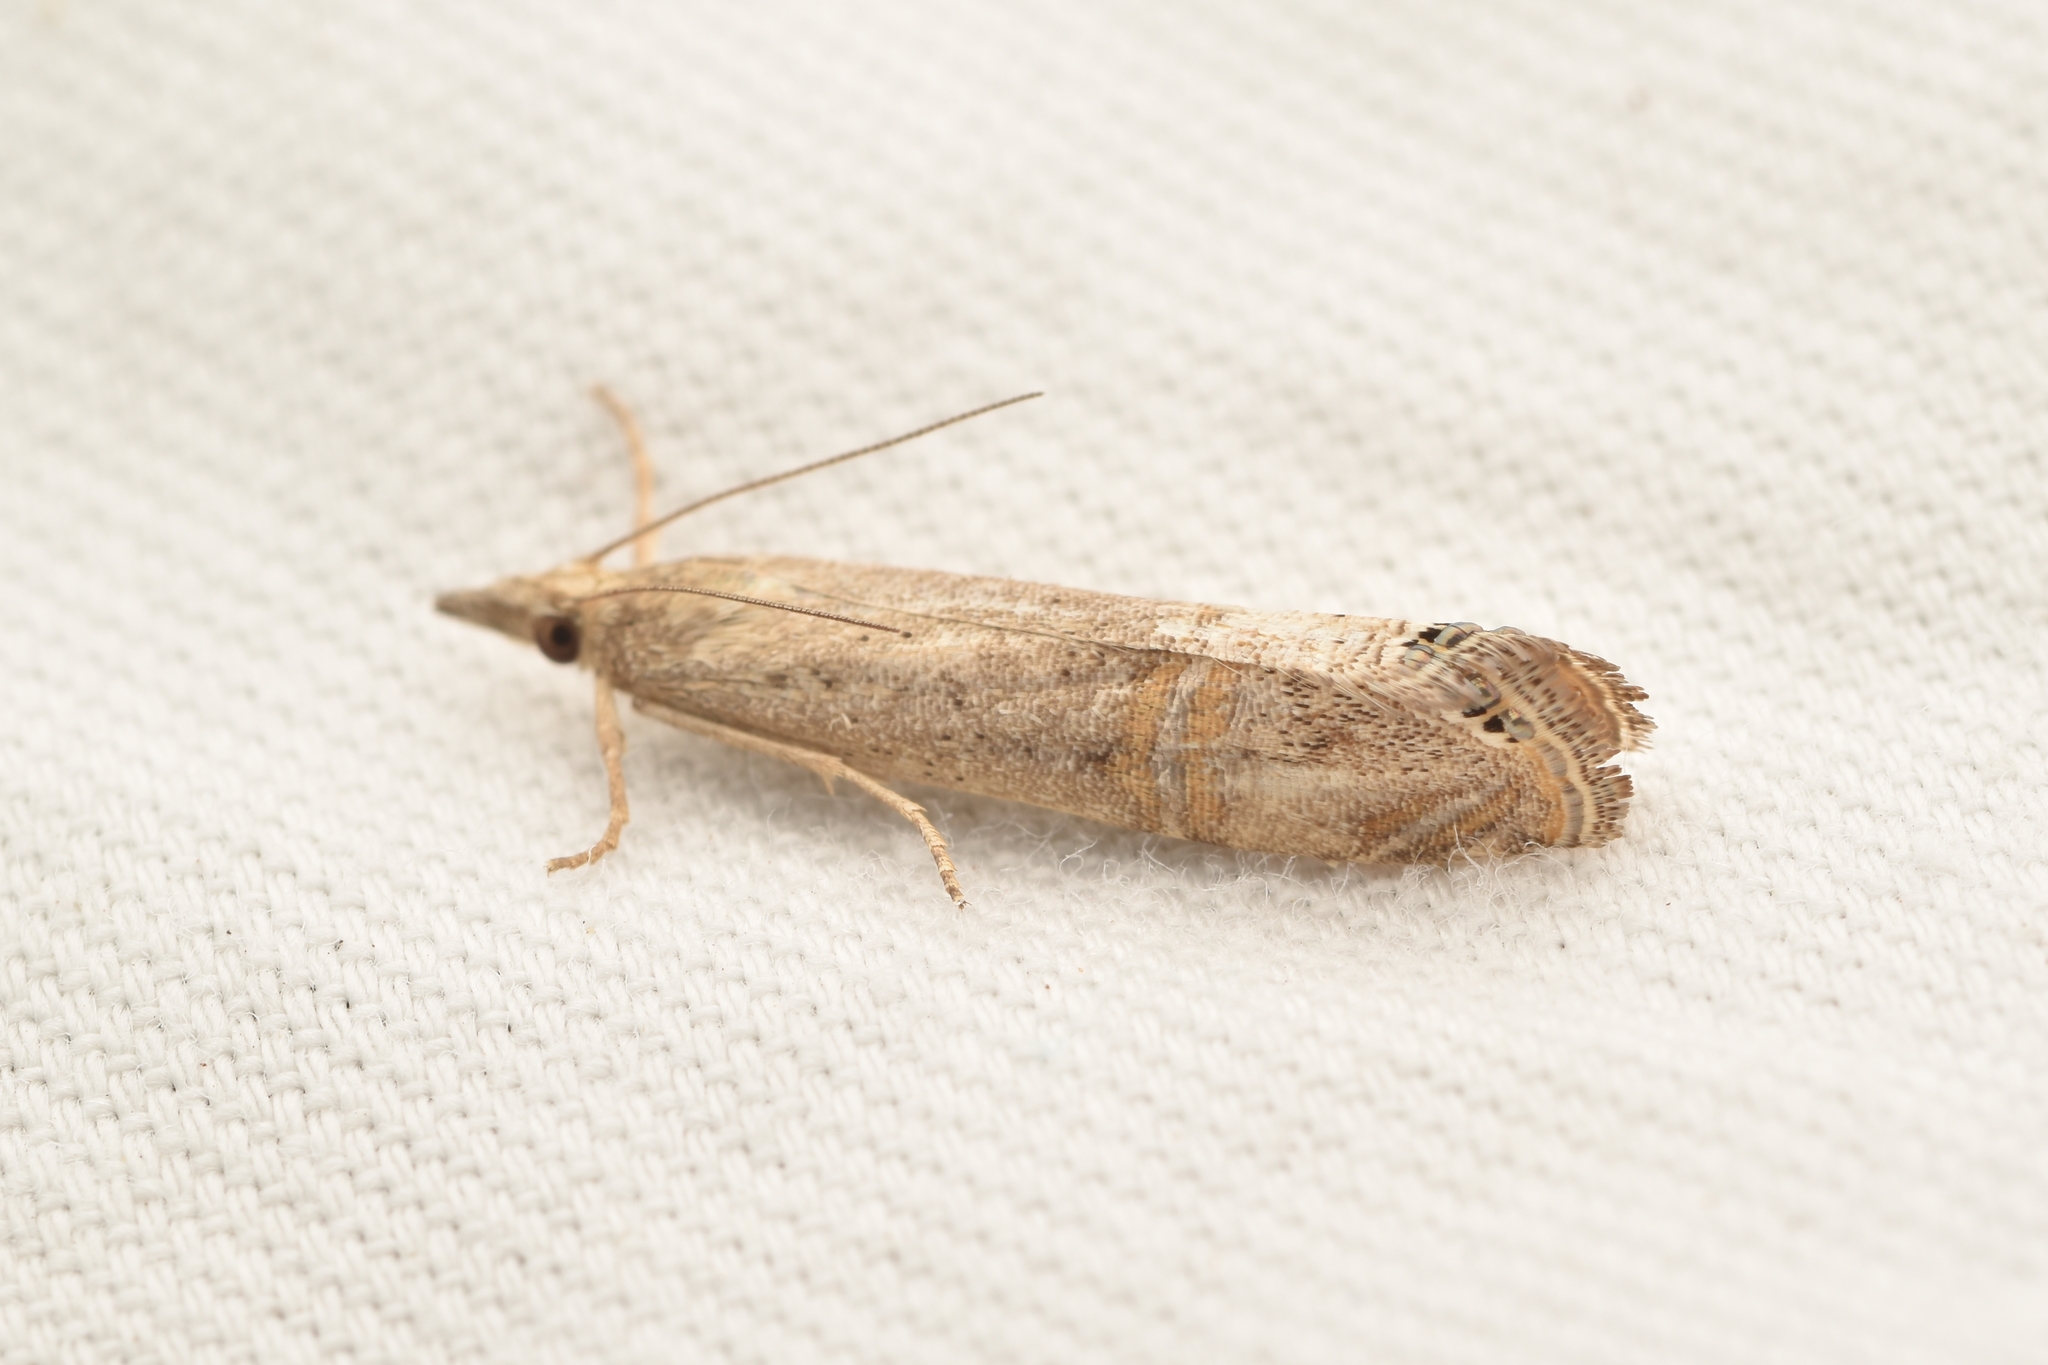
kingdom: Animalia
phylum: Arthropoda
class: Insecta
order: Lepidoptera
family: Crambidae
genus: Euchromius
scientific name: Euchromius ocellea
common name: Necklace veneer moth
